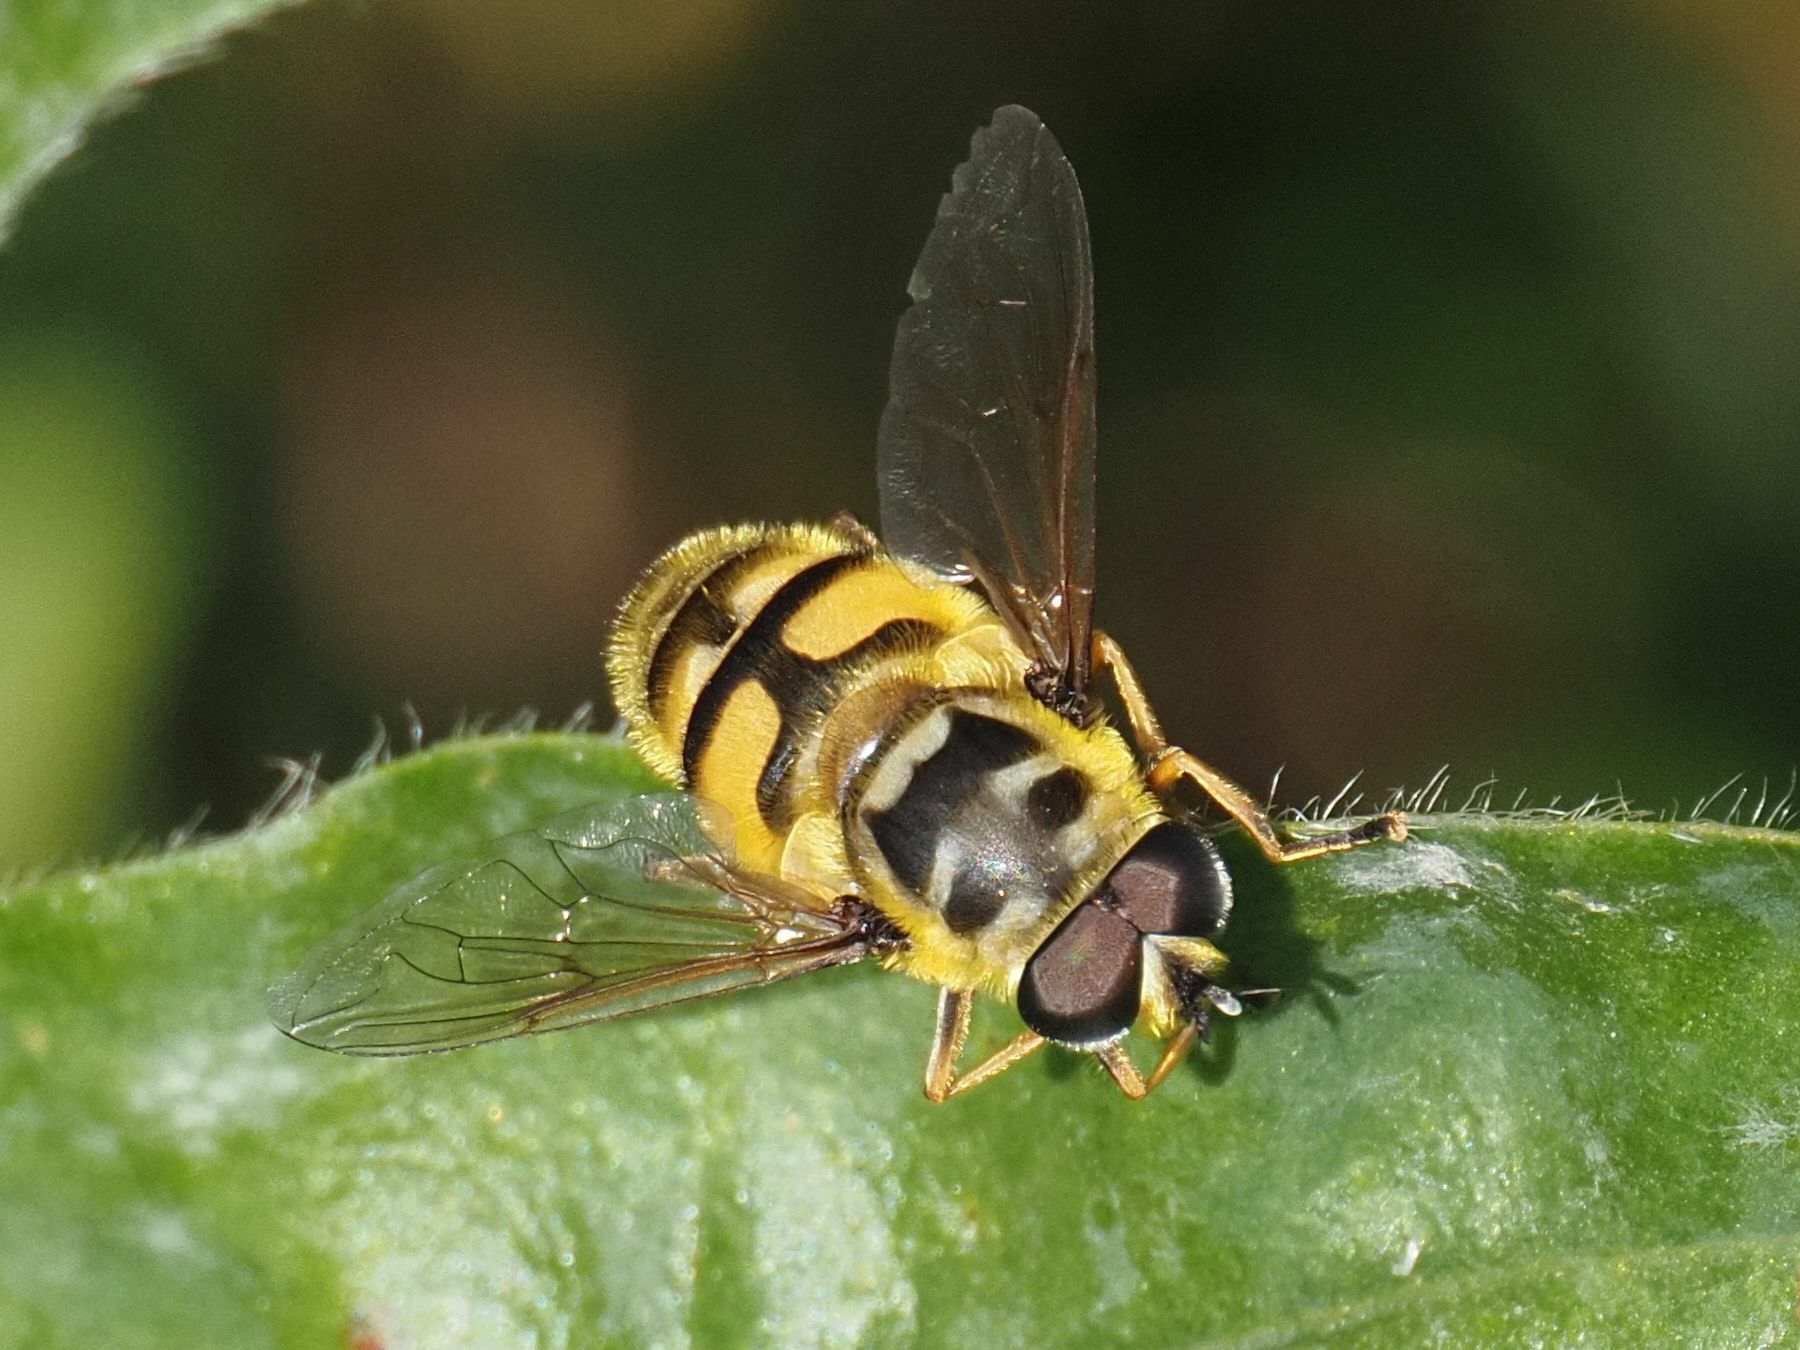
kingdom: Animalia
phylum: Arthropoda
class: Insecta
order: Diptera
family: Syrphidae
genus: Myathropa
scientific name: Myathropa florea
